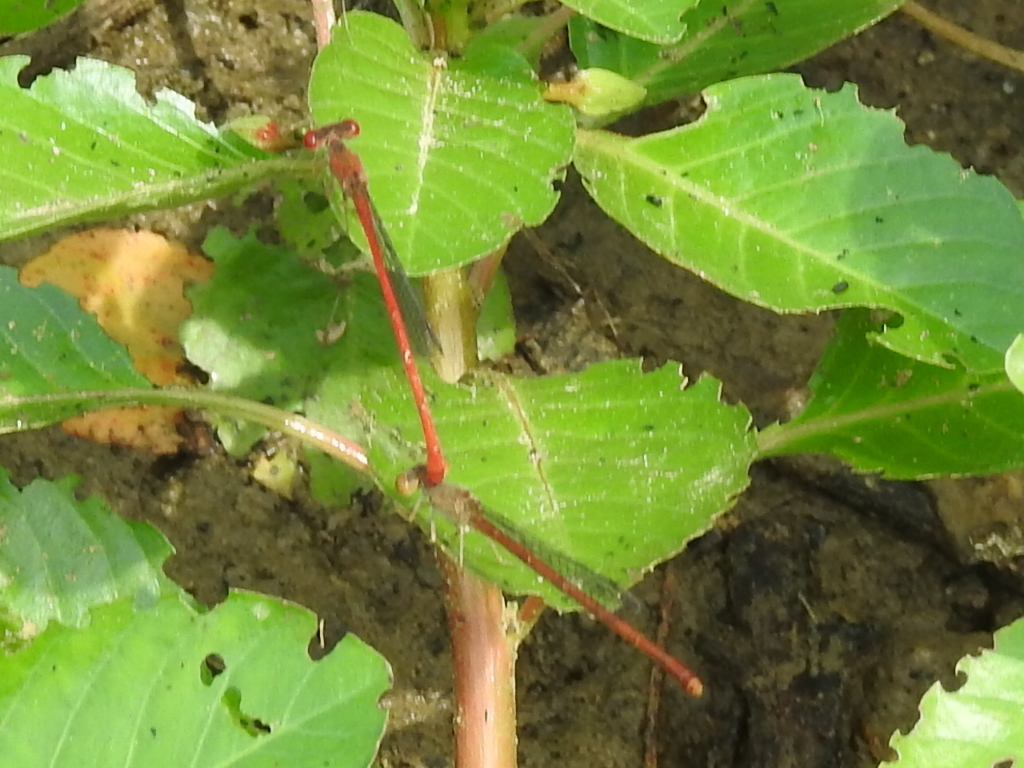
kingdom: Animalia
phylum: Arthropoda
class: Insecta
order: Odonata
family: Coenagrionidae
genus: Telebasis
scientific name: Telebasis salva
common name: Desert firetail
